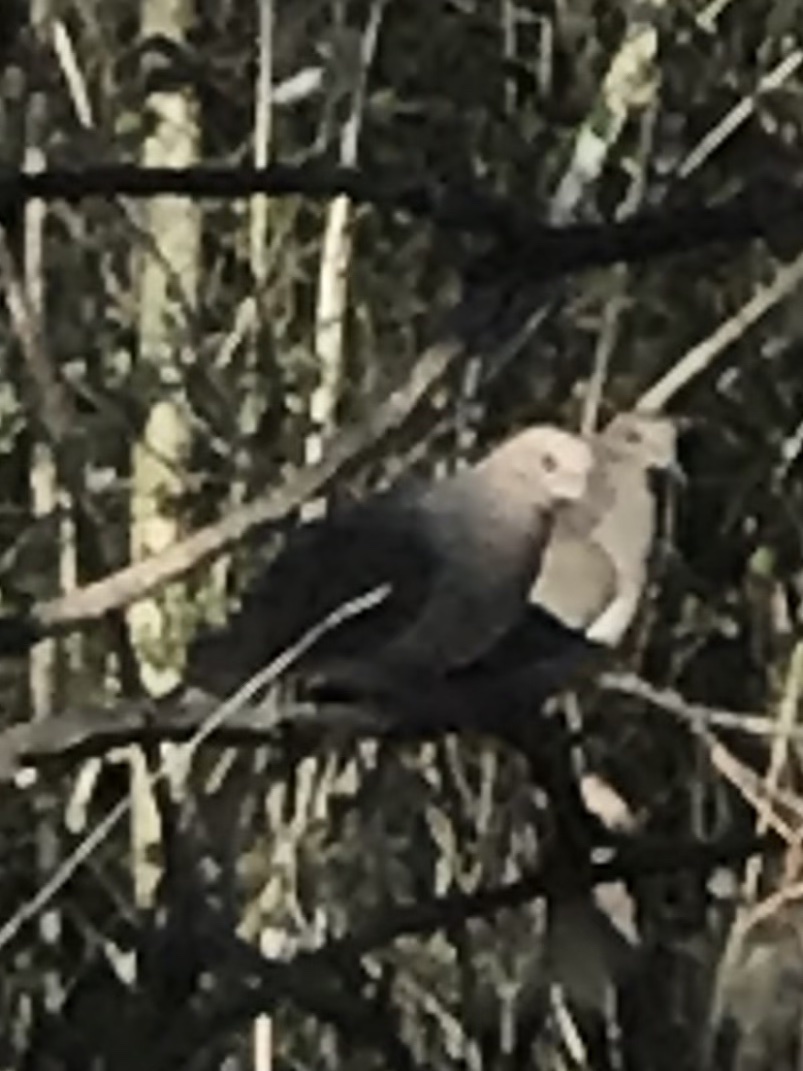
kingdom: Animalia
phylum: Chordata
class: Aves
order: Columbiformes
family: Columbidae
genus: Zenaida
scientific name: Zenaida macroura
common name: Mourning dove
